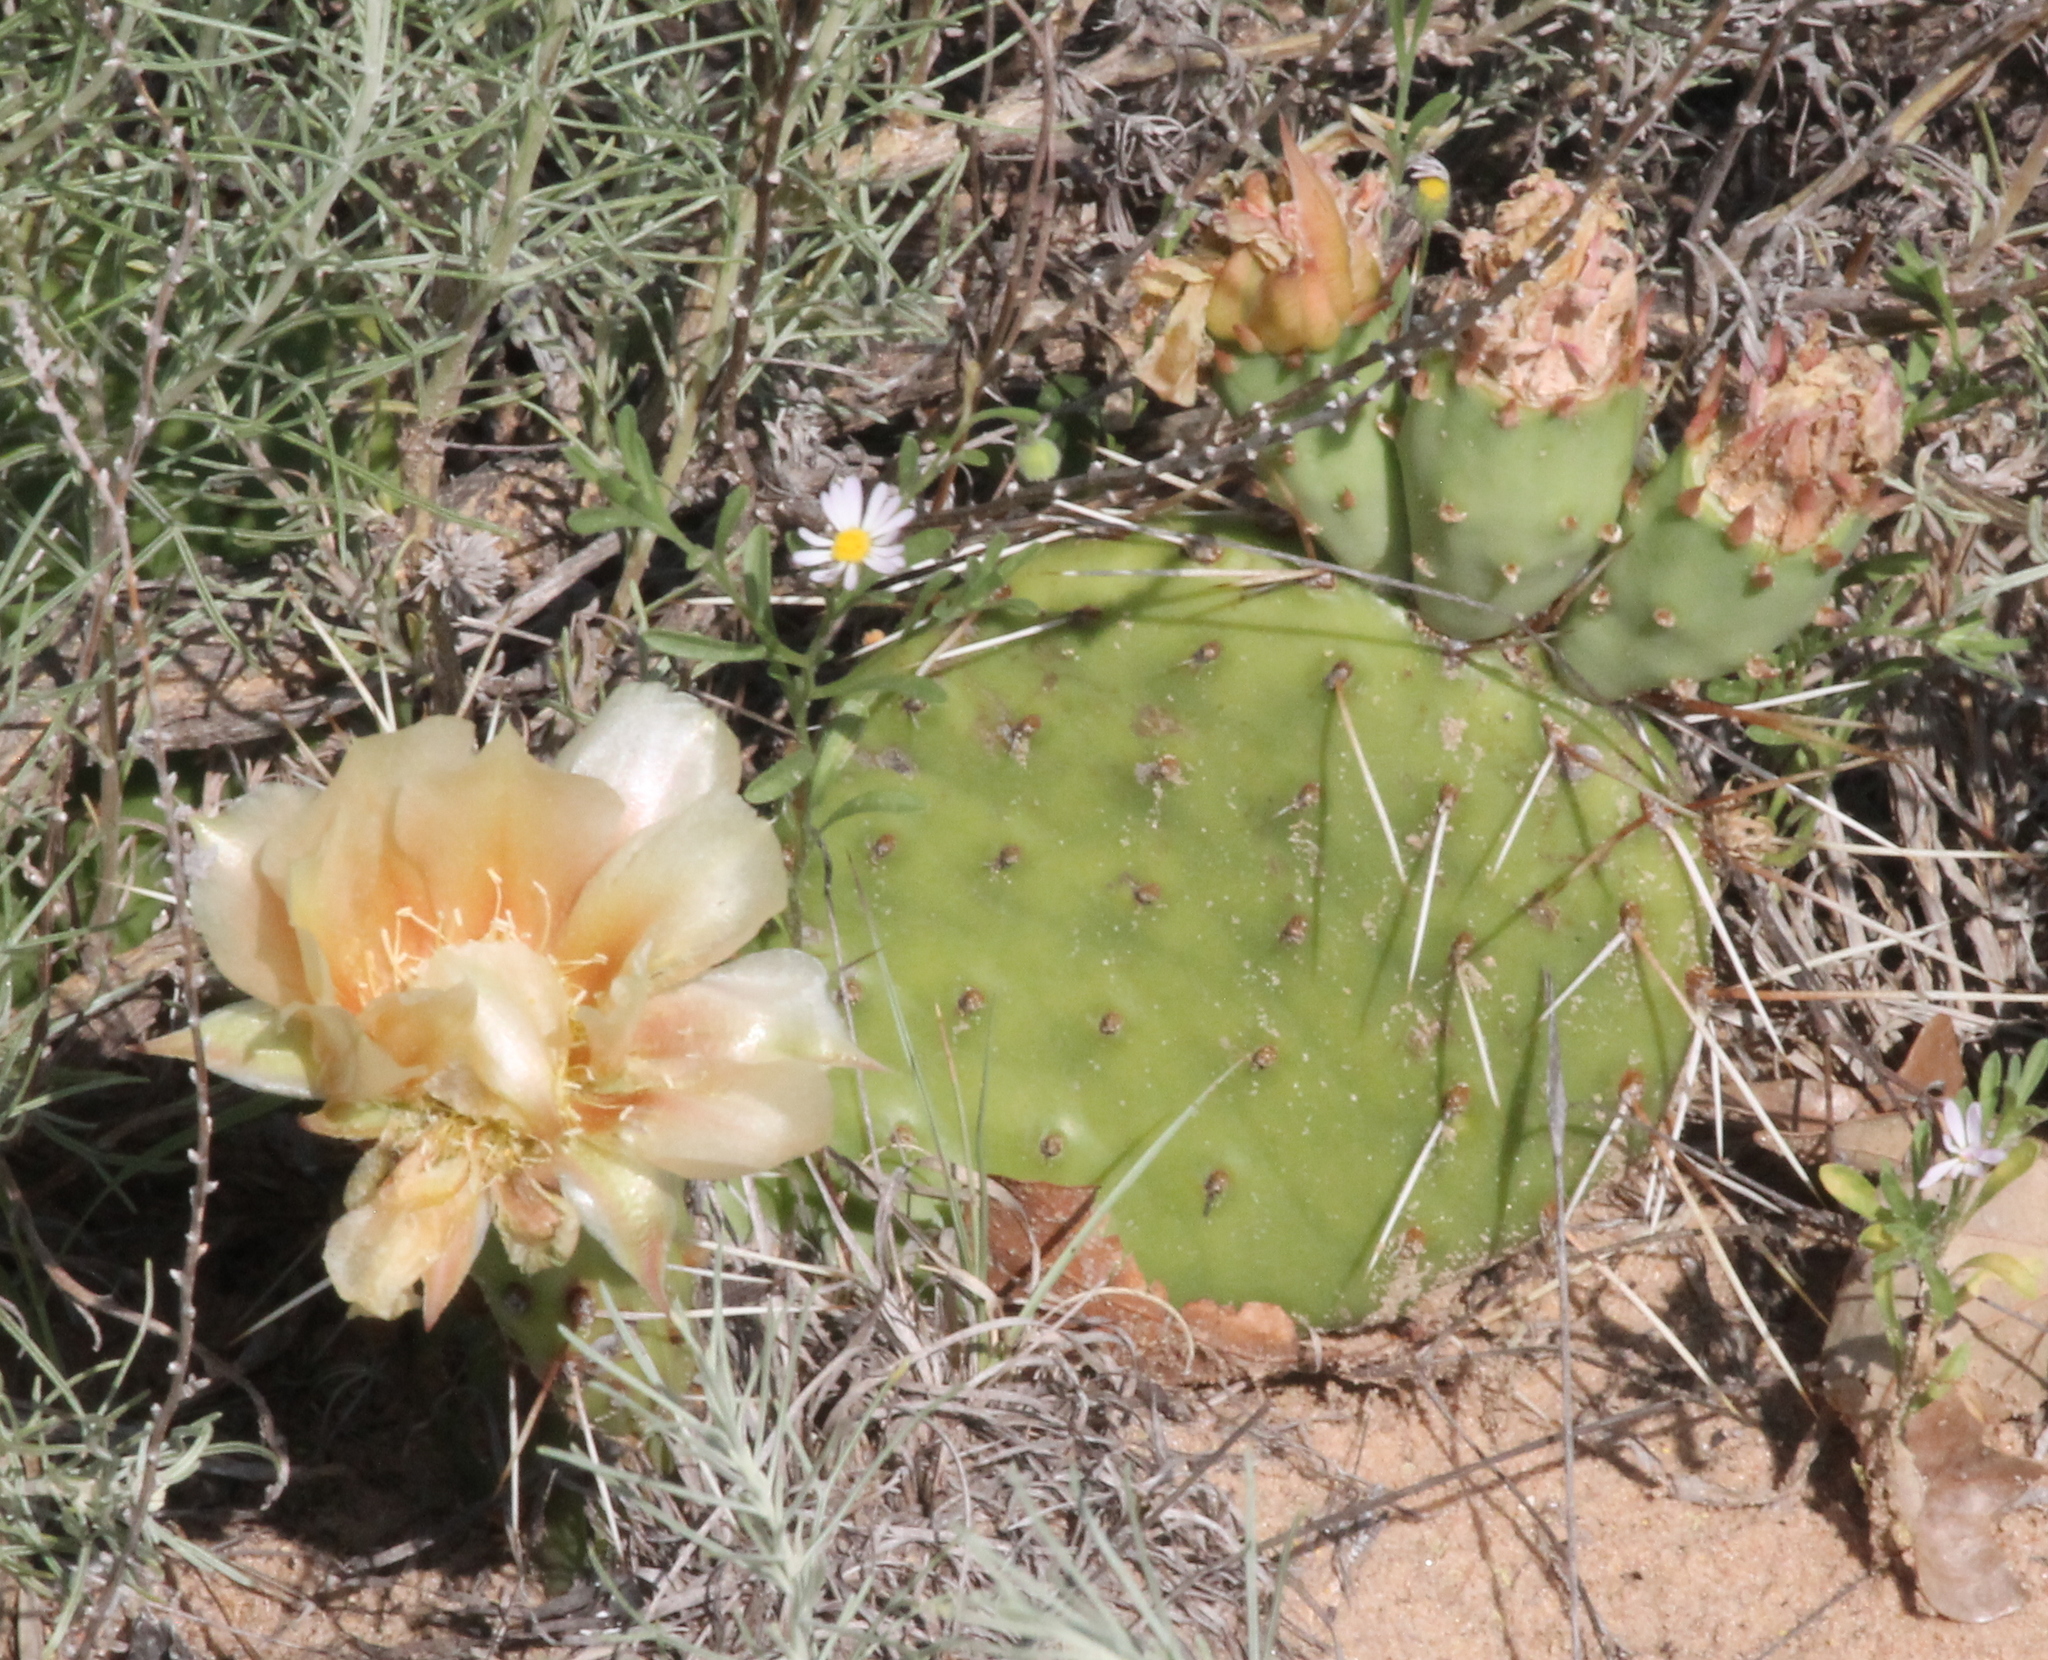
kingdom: Plantae
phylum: Tracheophyta
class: Magnoliopsida
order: Caryophyllales
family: Cactaceae
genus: Opuntia
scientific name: Opuntia cymochila
